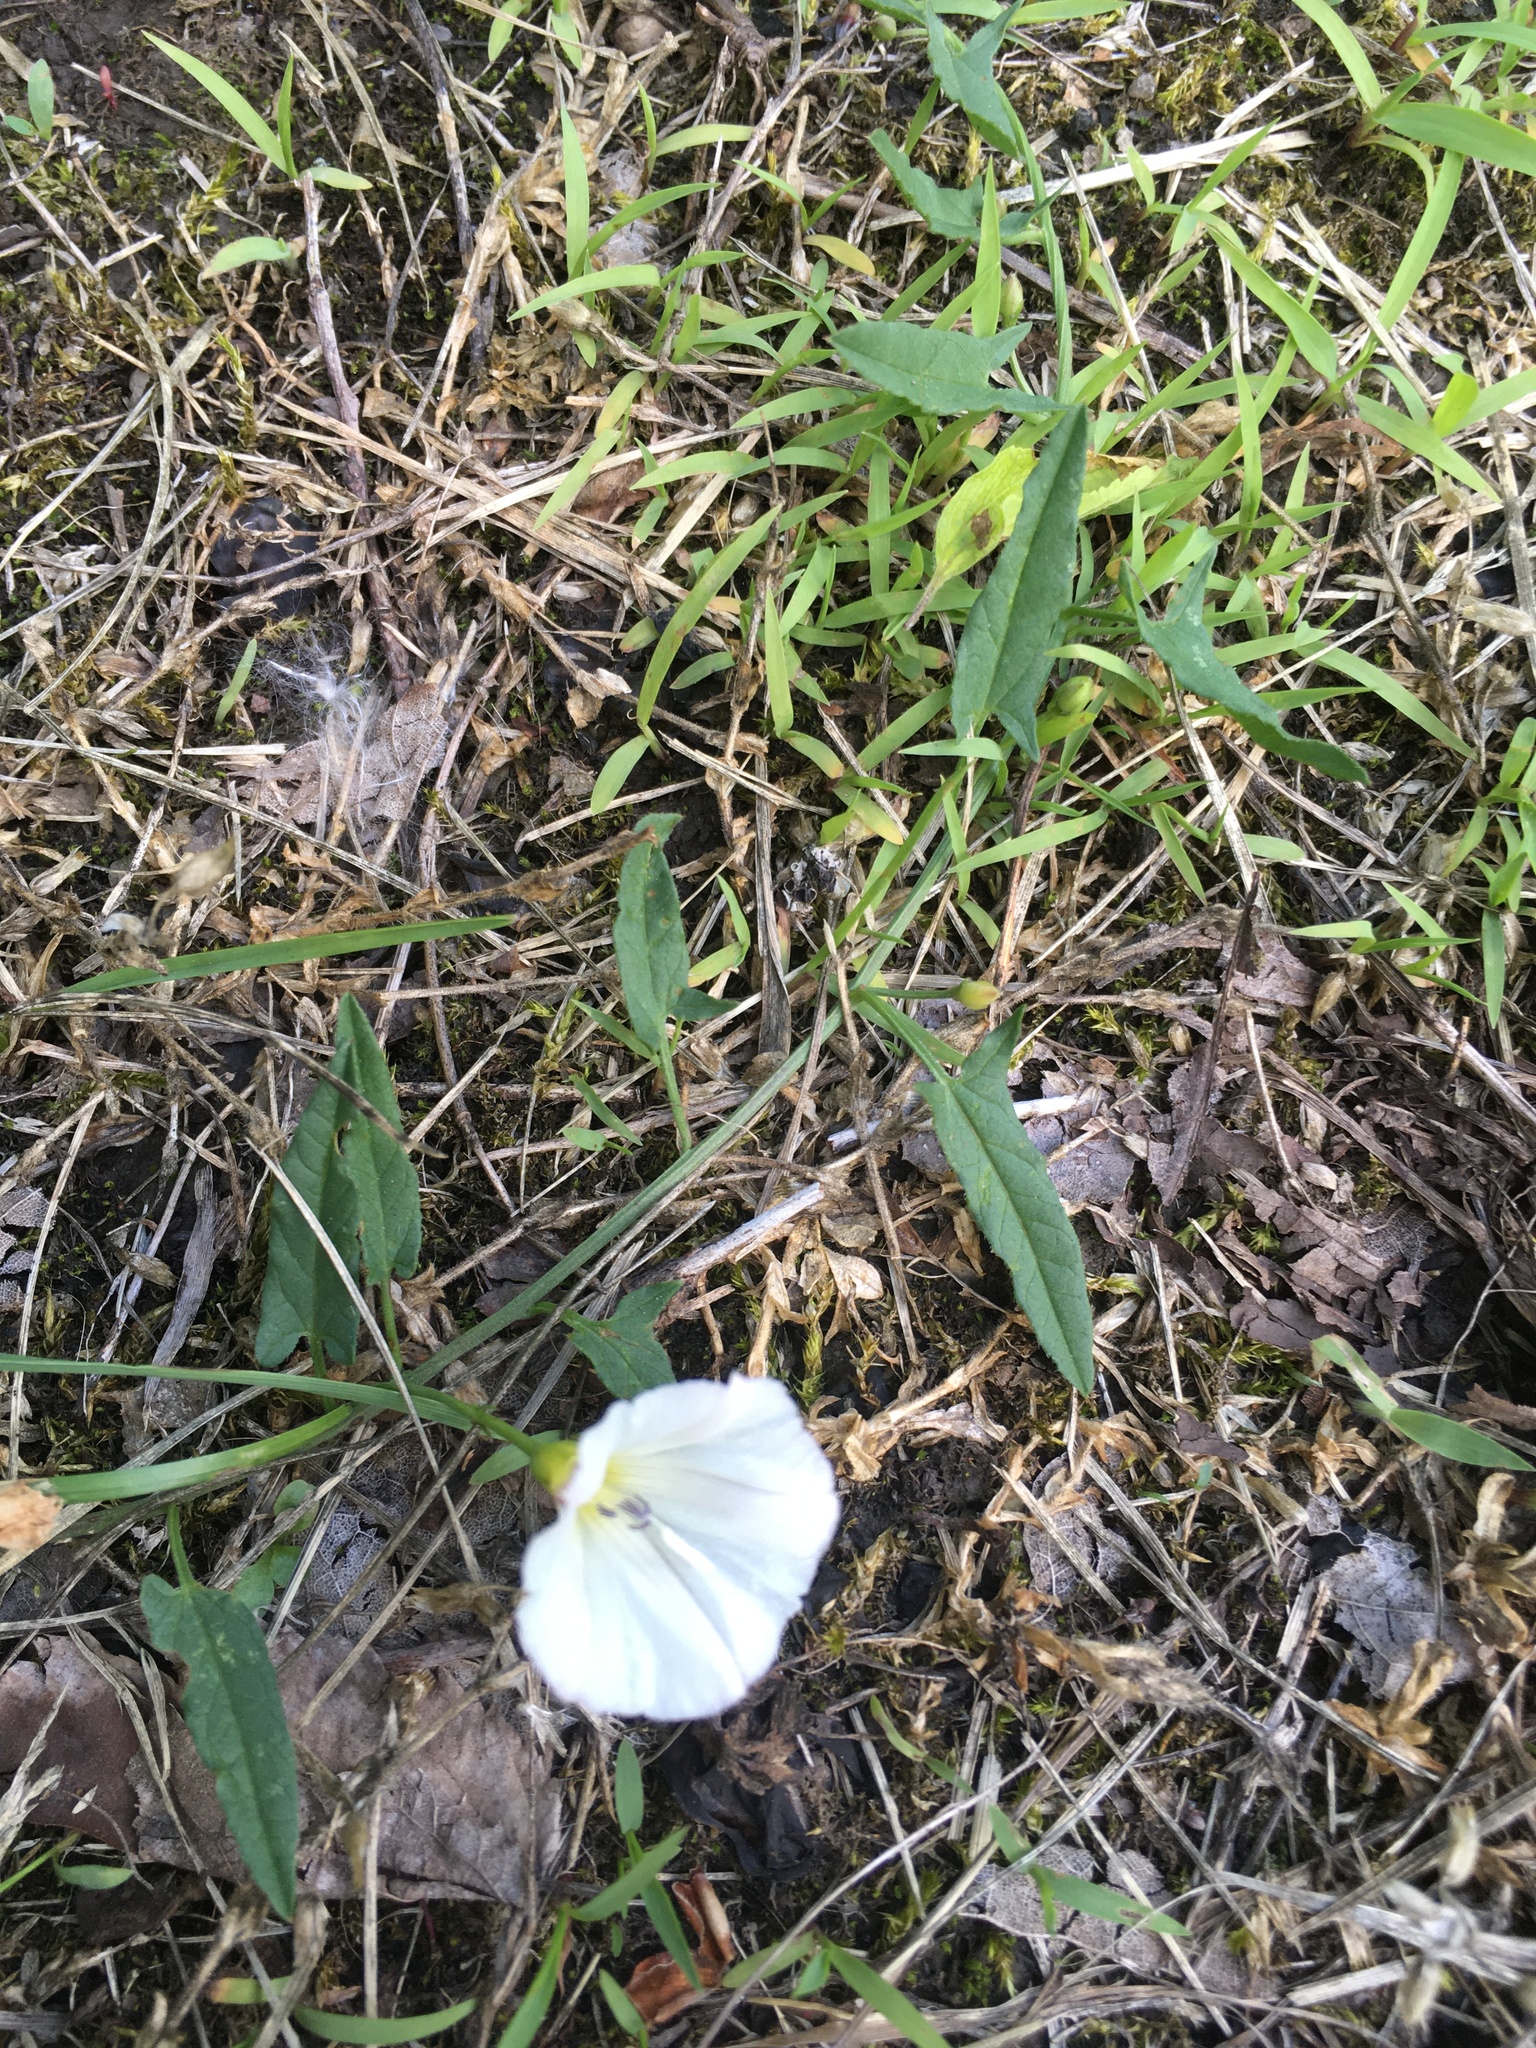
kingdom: Plantae
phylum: Tracheophyta
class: Magnoliopsida
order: Solanales
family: Convolvulaceae
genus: Convolvulus
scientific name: Convolvulus arvensis
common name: Field bindweed
